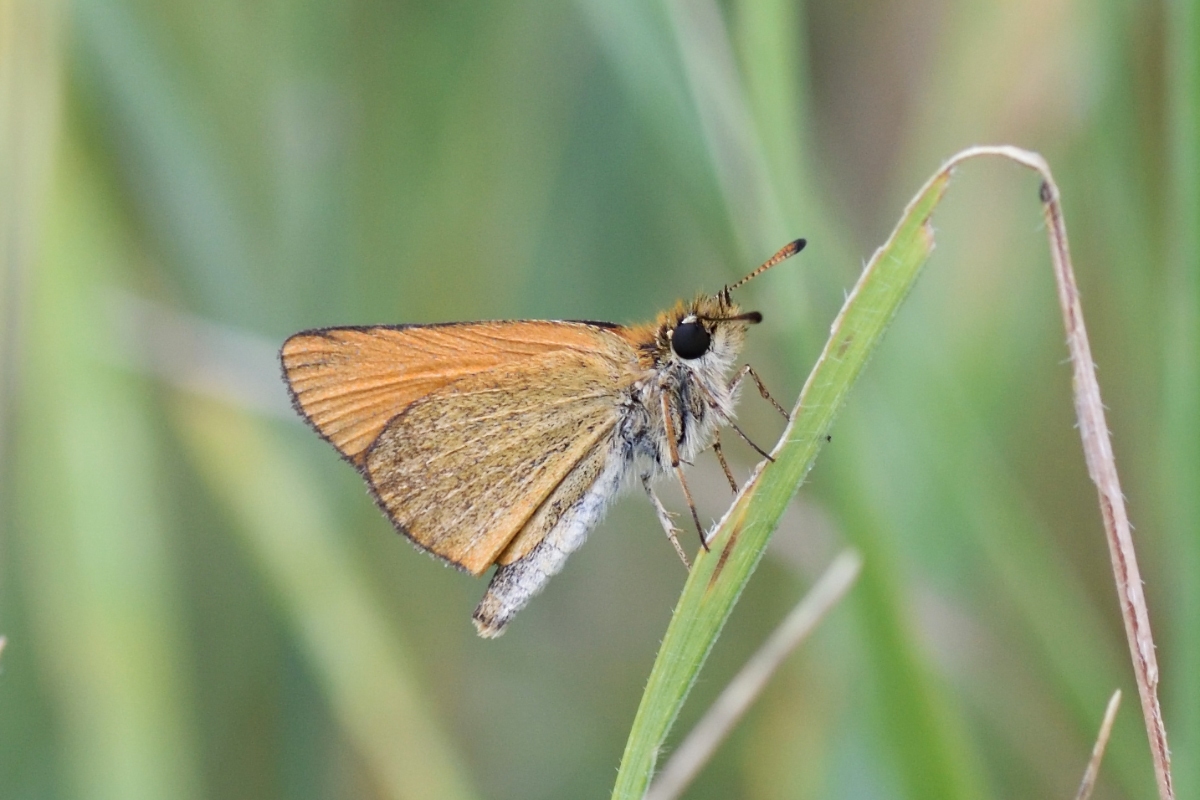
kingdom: Animalia
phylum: Arthropoda
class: Insecta
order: Lepidoptera
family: Hesperiidae
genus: Thymelicus
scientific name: Thymelicus lineola
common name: Essex skipper
